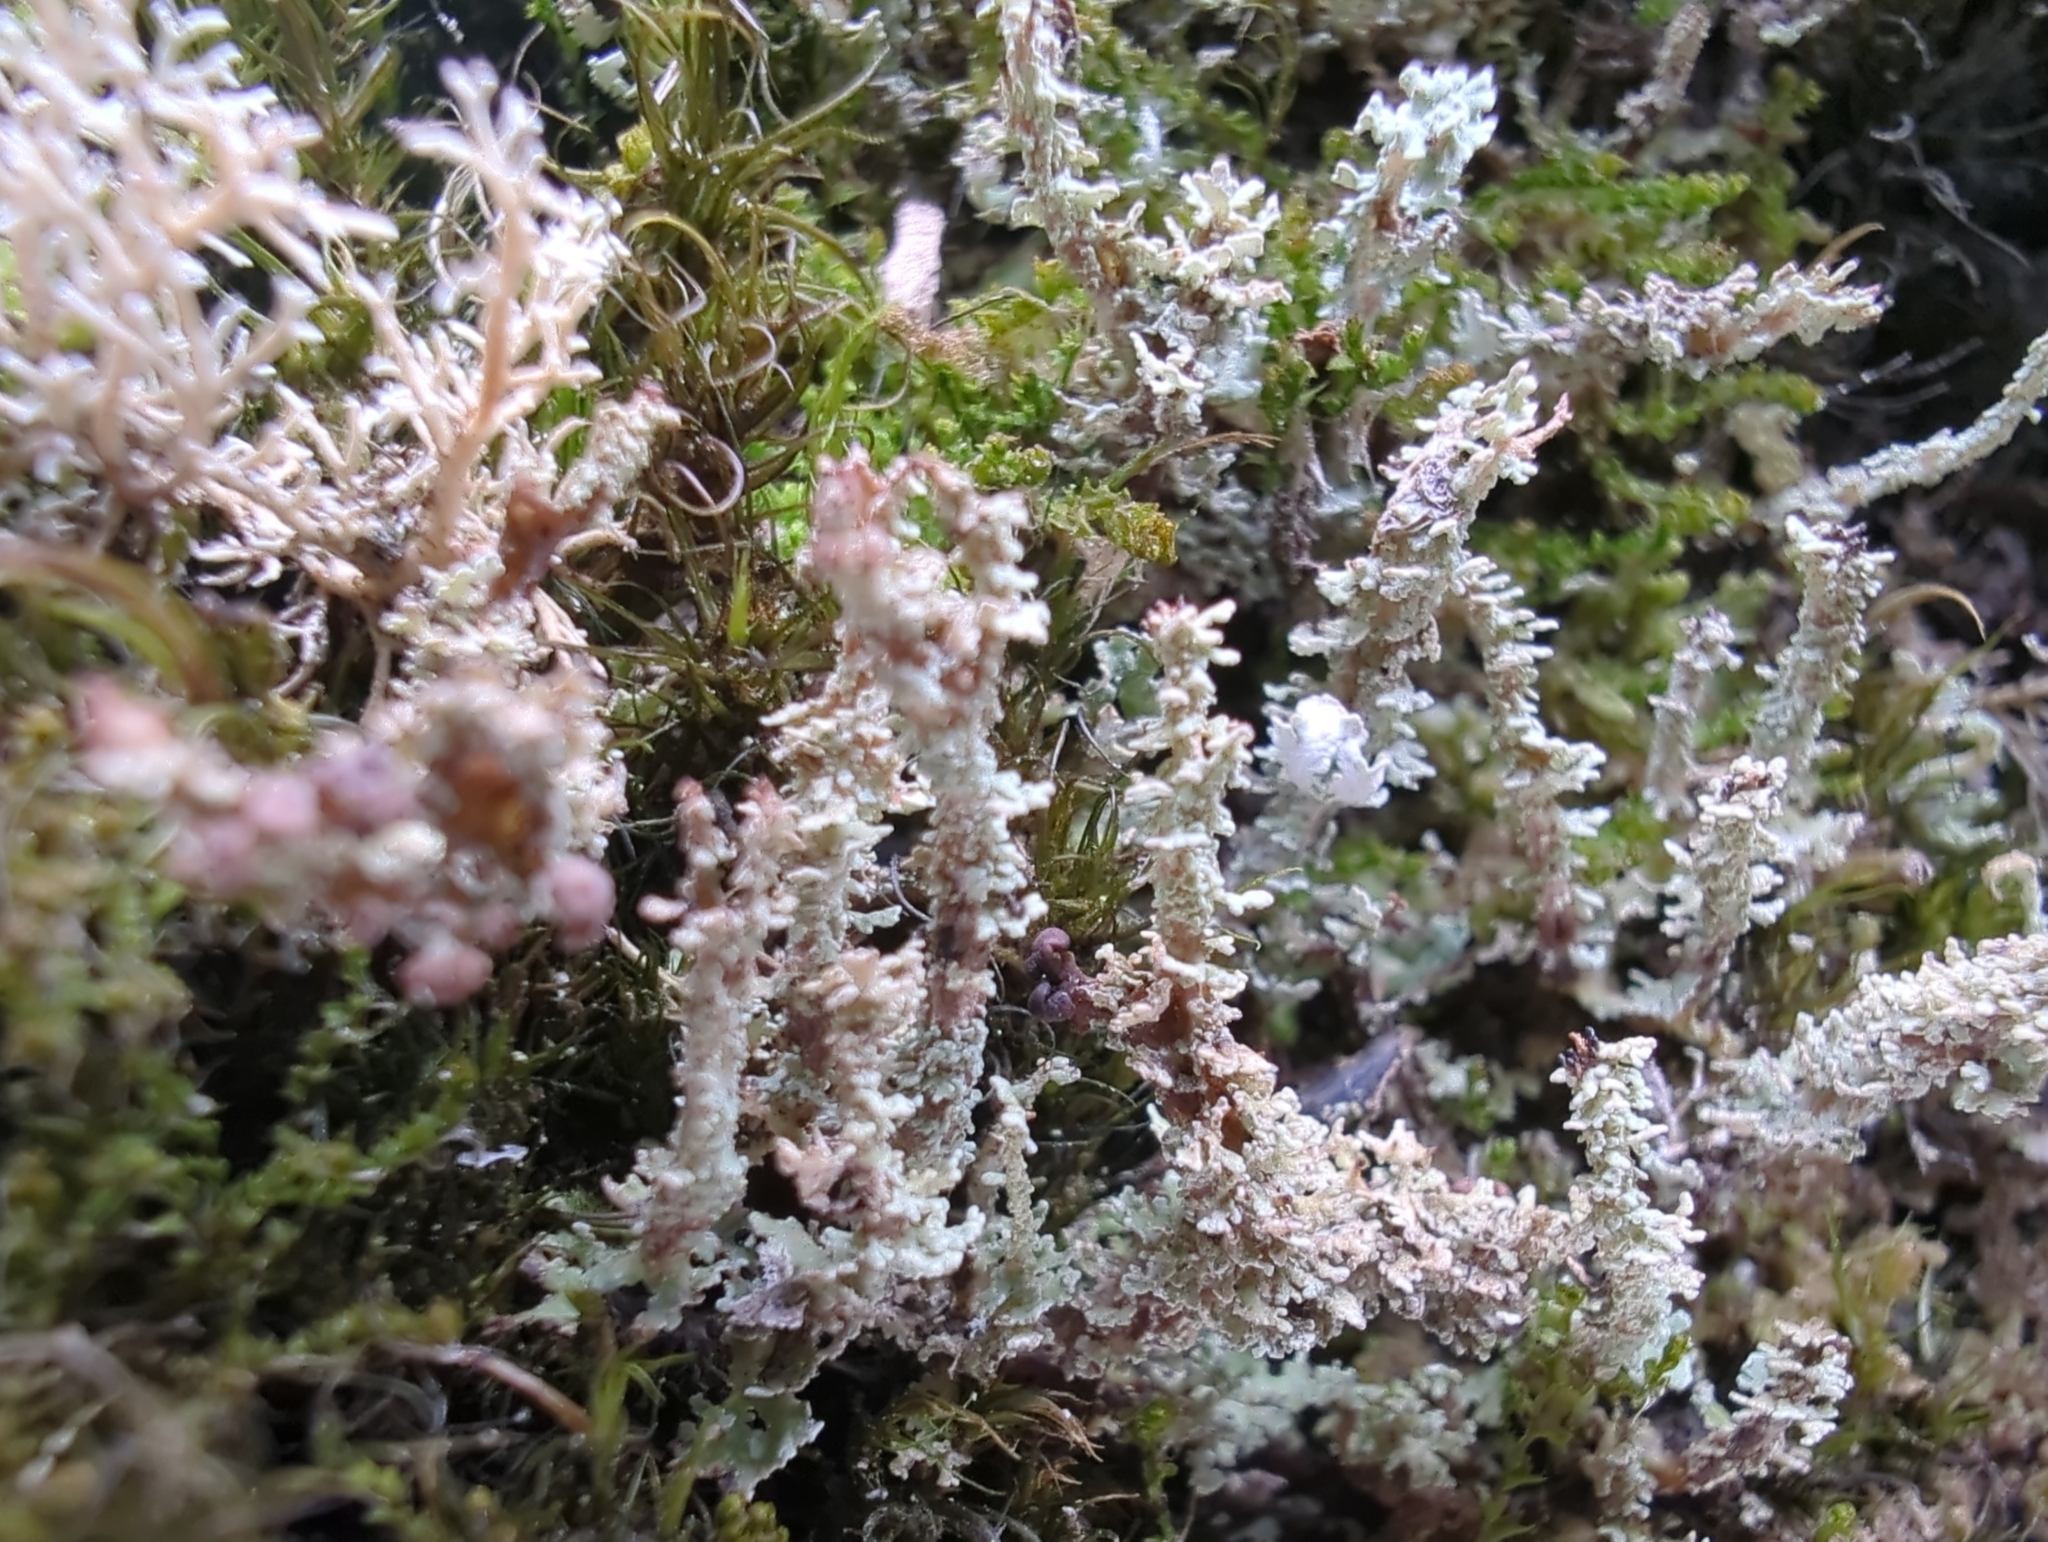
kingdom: Fungi
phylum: Ascomycota
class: Lecanoromycetes
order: Lecanorales
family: Cladoniaceae
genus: Cladonia
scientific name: Cladonia squamosa
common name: Dragon horn
